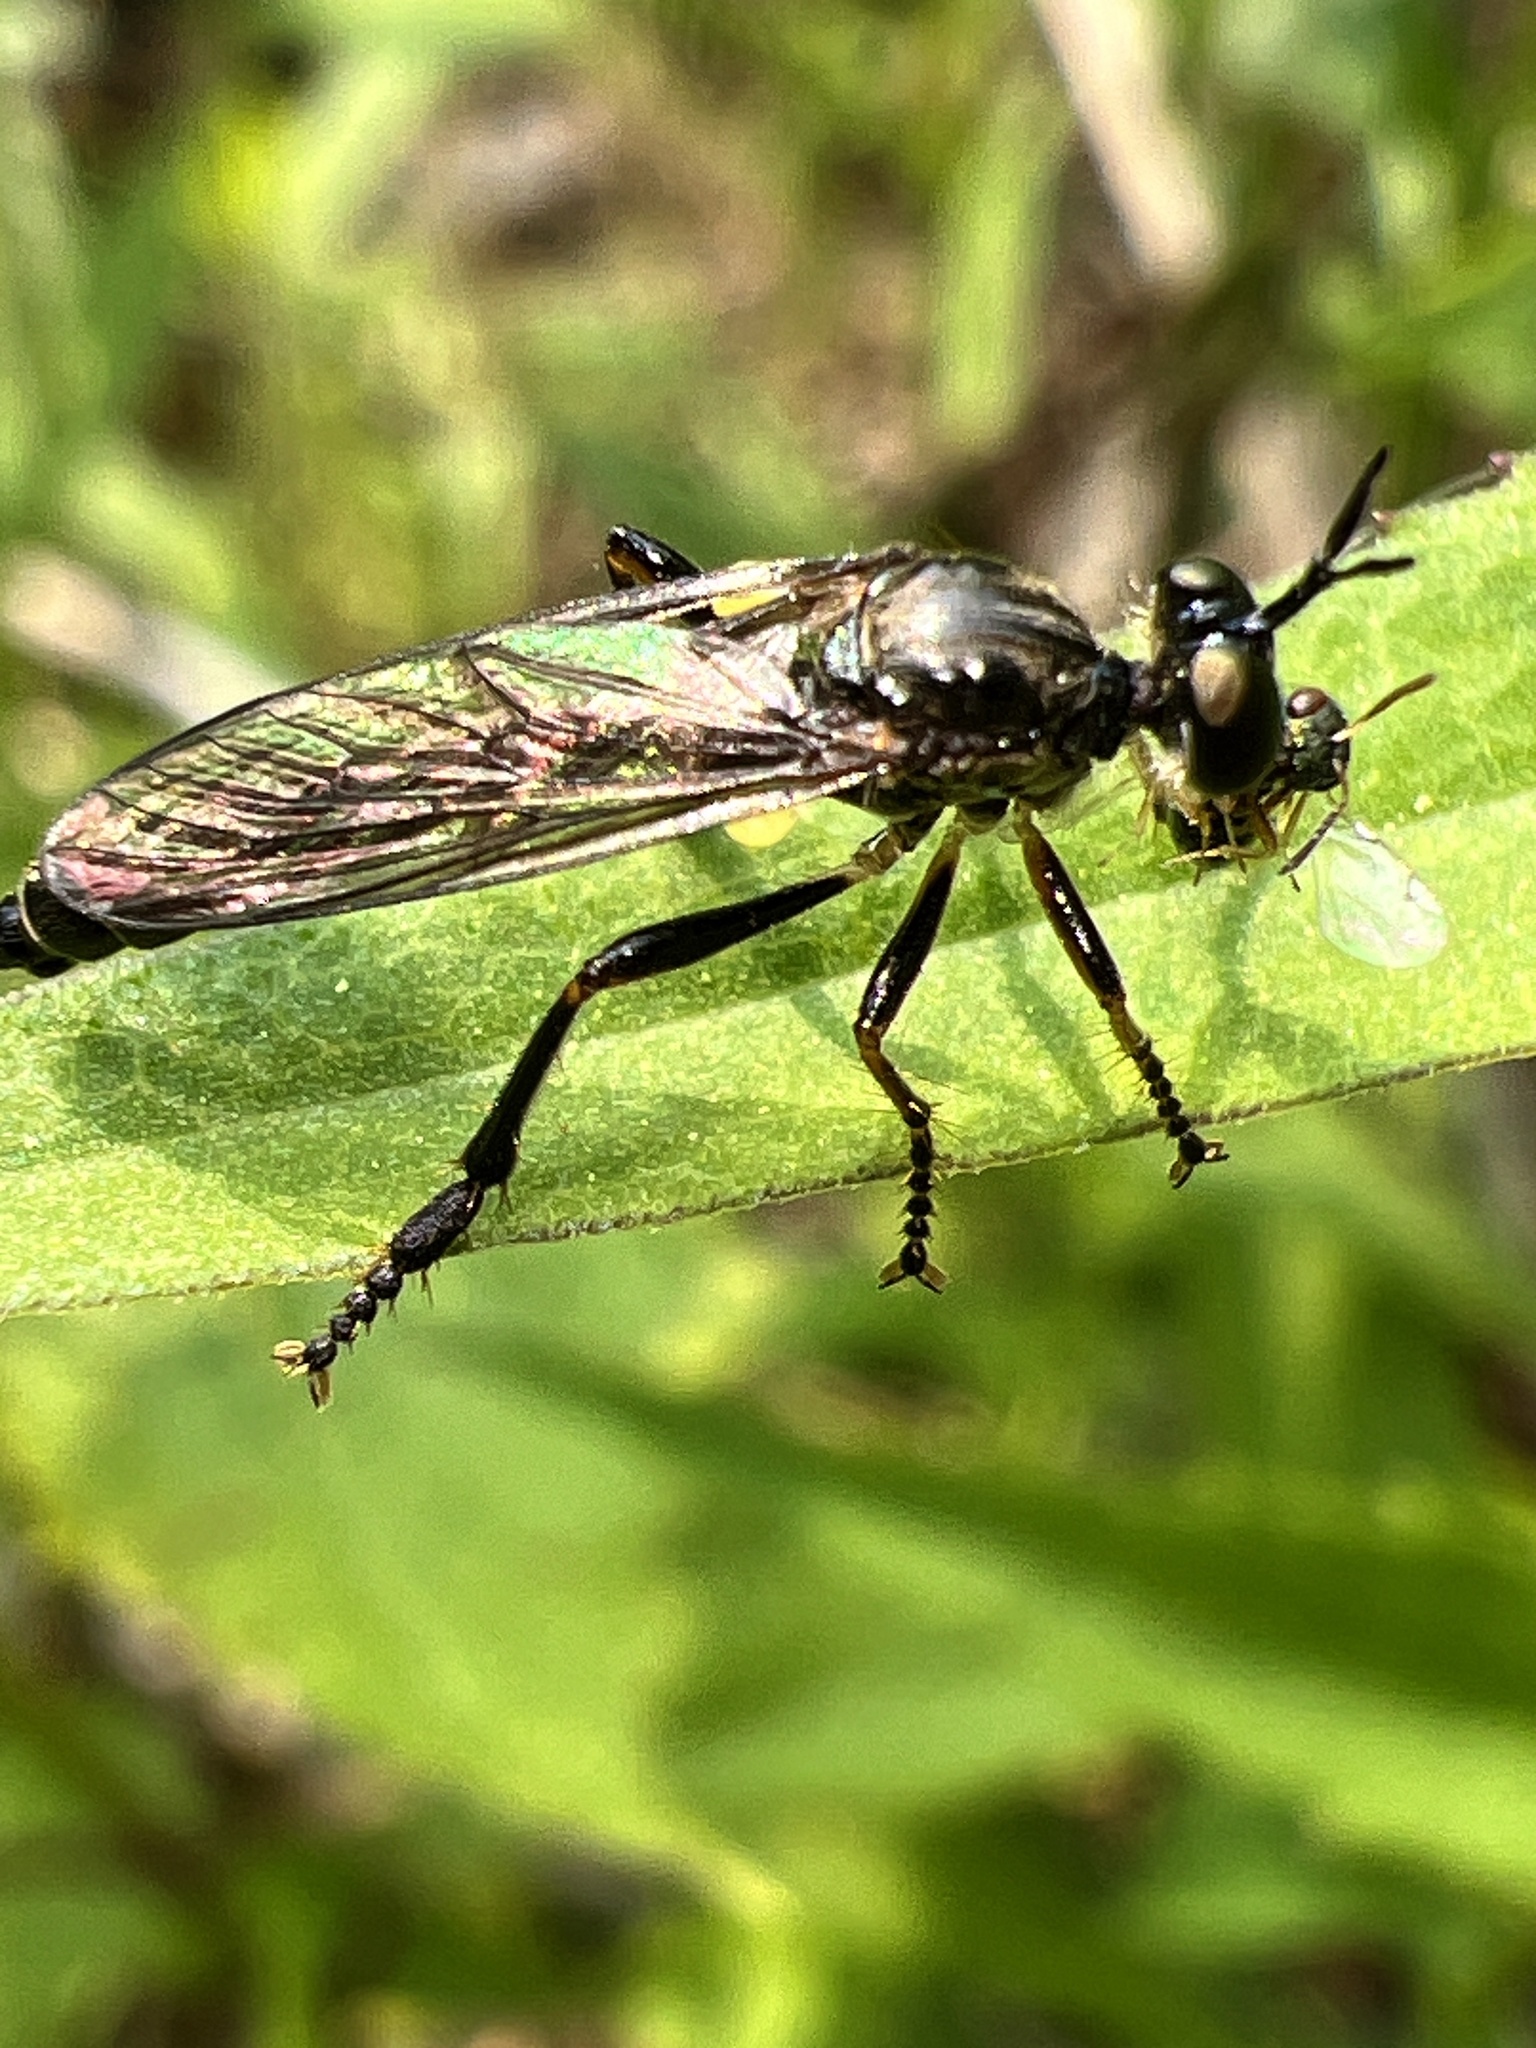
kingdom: Animalia
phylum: Arthropoda
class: Insecta
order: Diptera
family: Asilidae
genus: Dioctria
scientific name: Dioctria hyalipennis
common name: Stripe-legged robberfly
